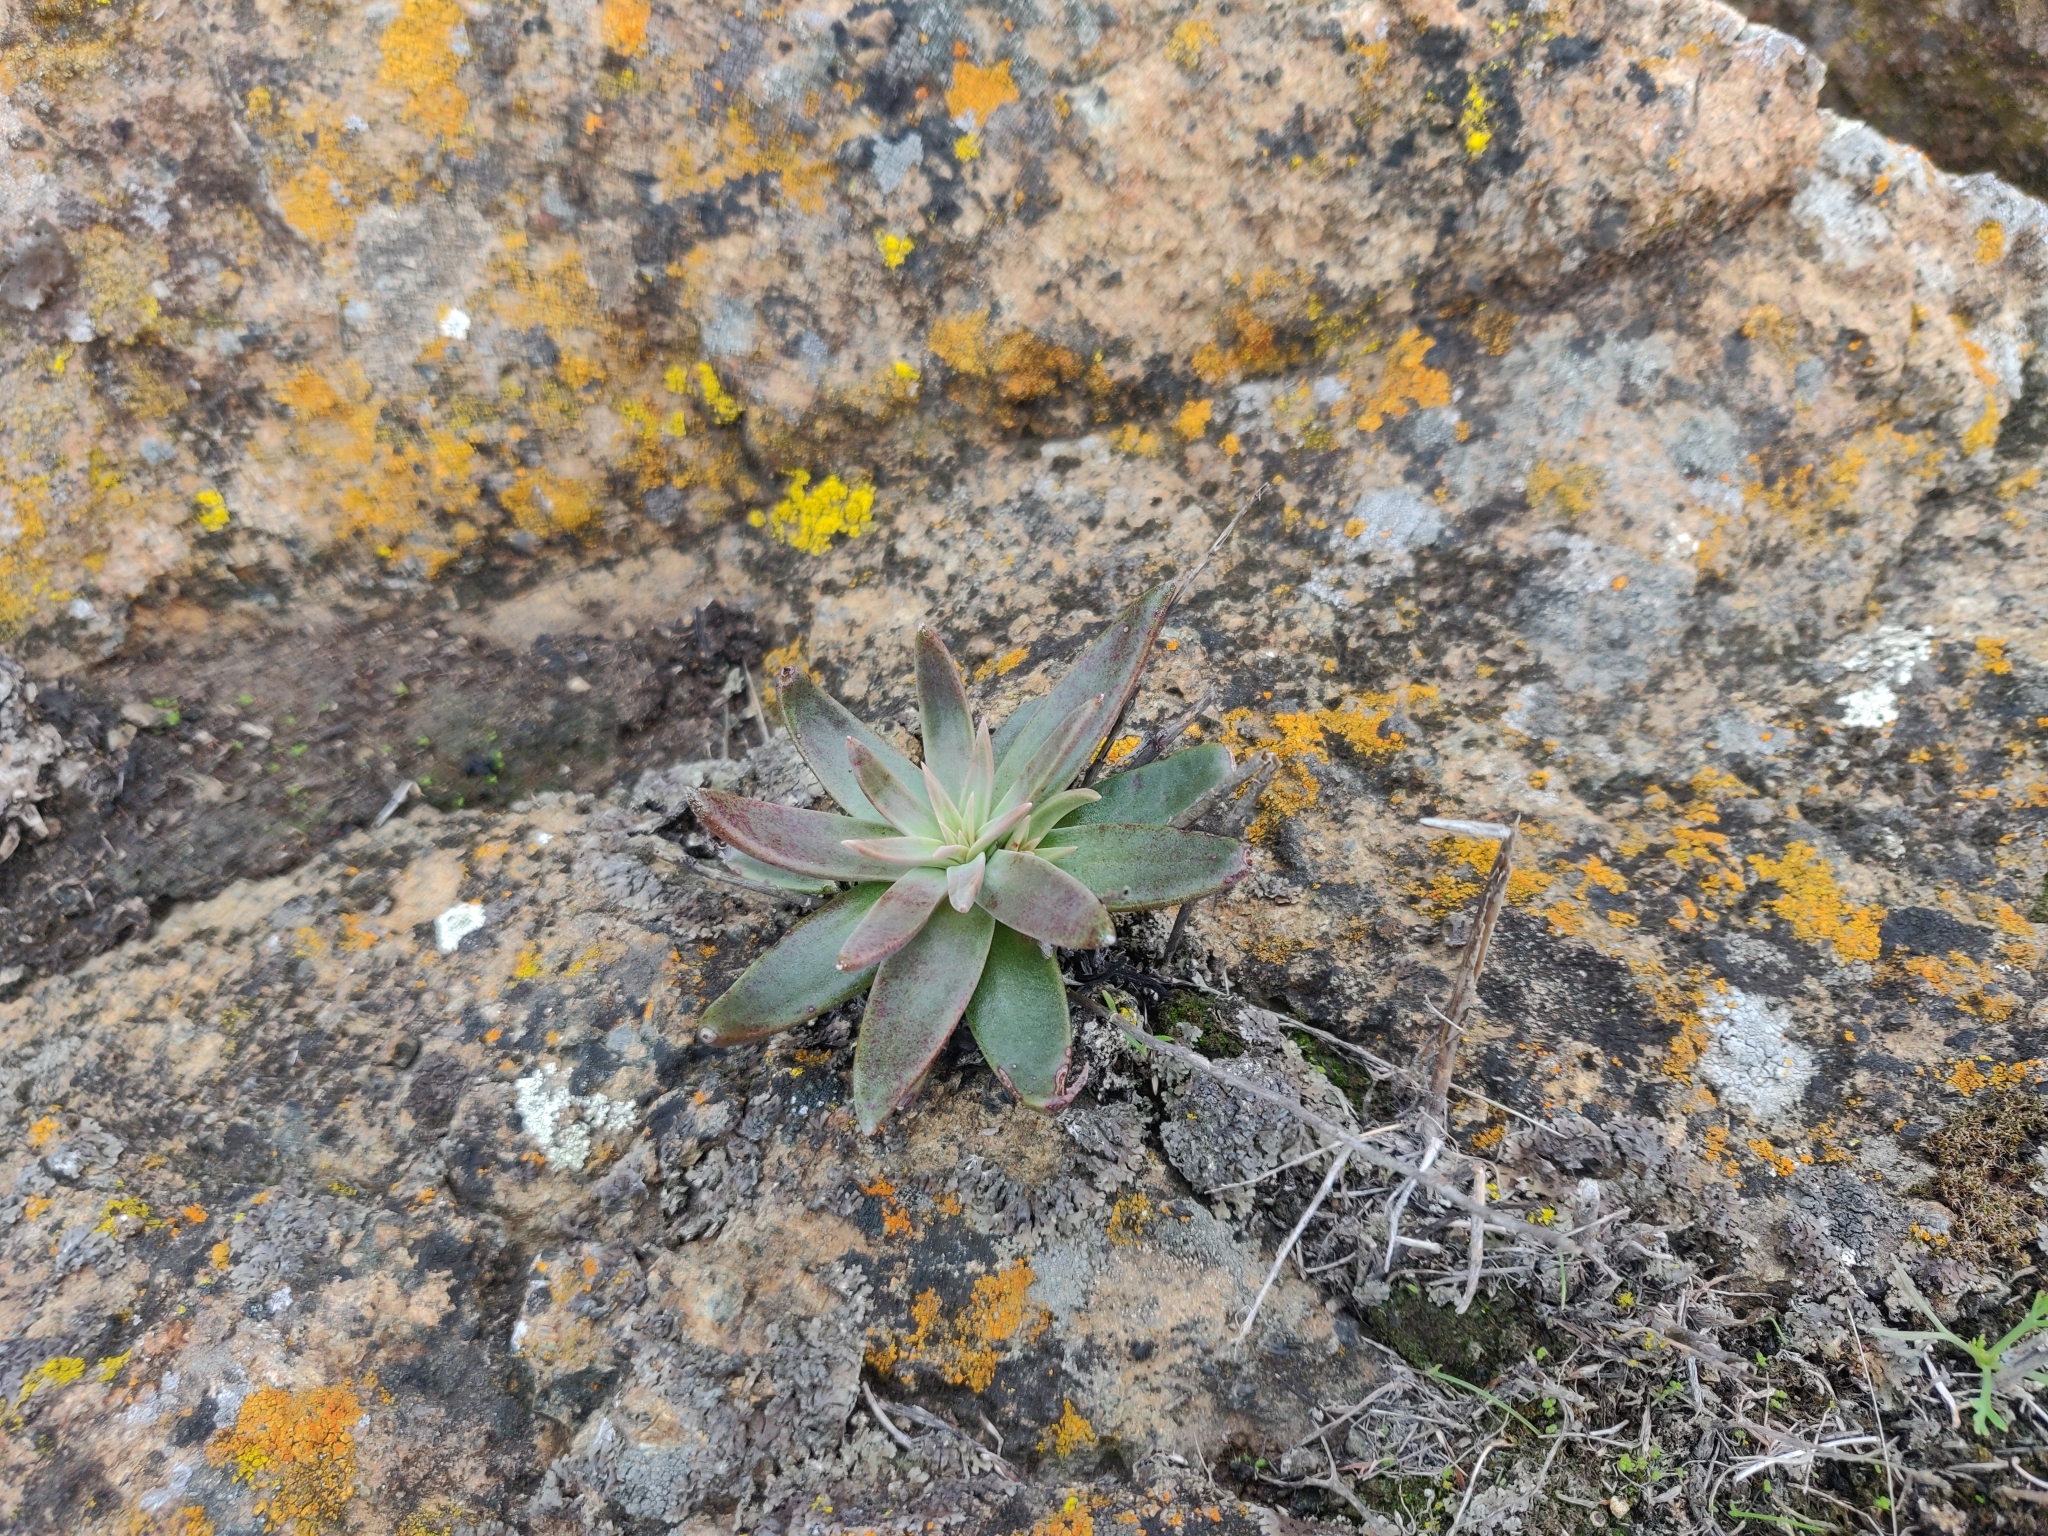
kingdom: Plantae
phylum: Tracheophyta
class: Magnoliopsida
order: Saxifragales
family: Crassulaceae
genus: Dudleya
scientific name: Dudleya abramsii
